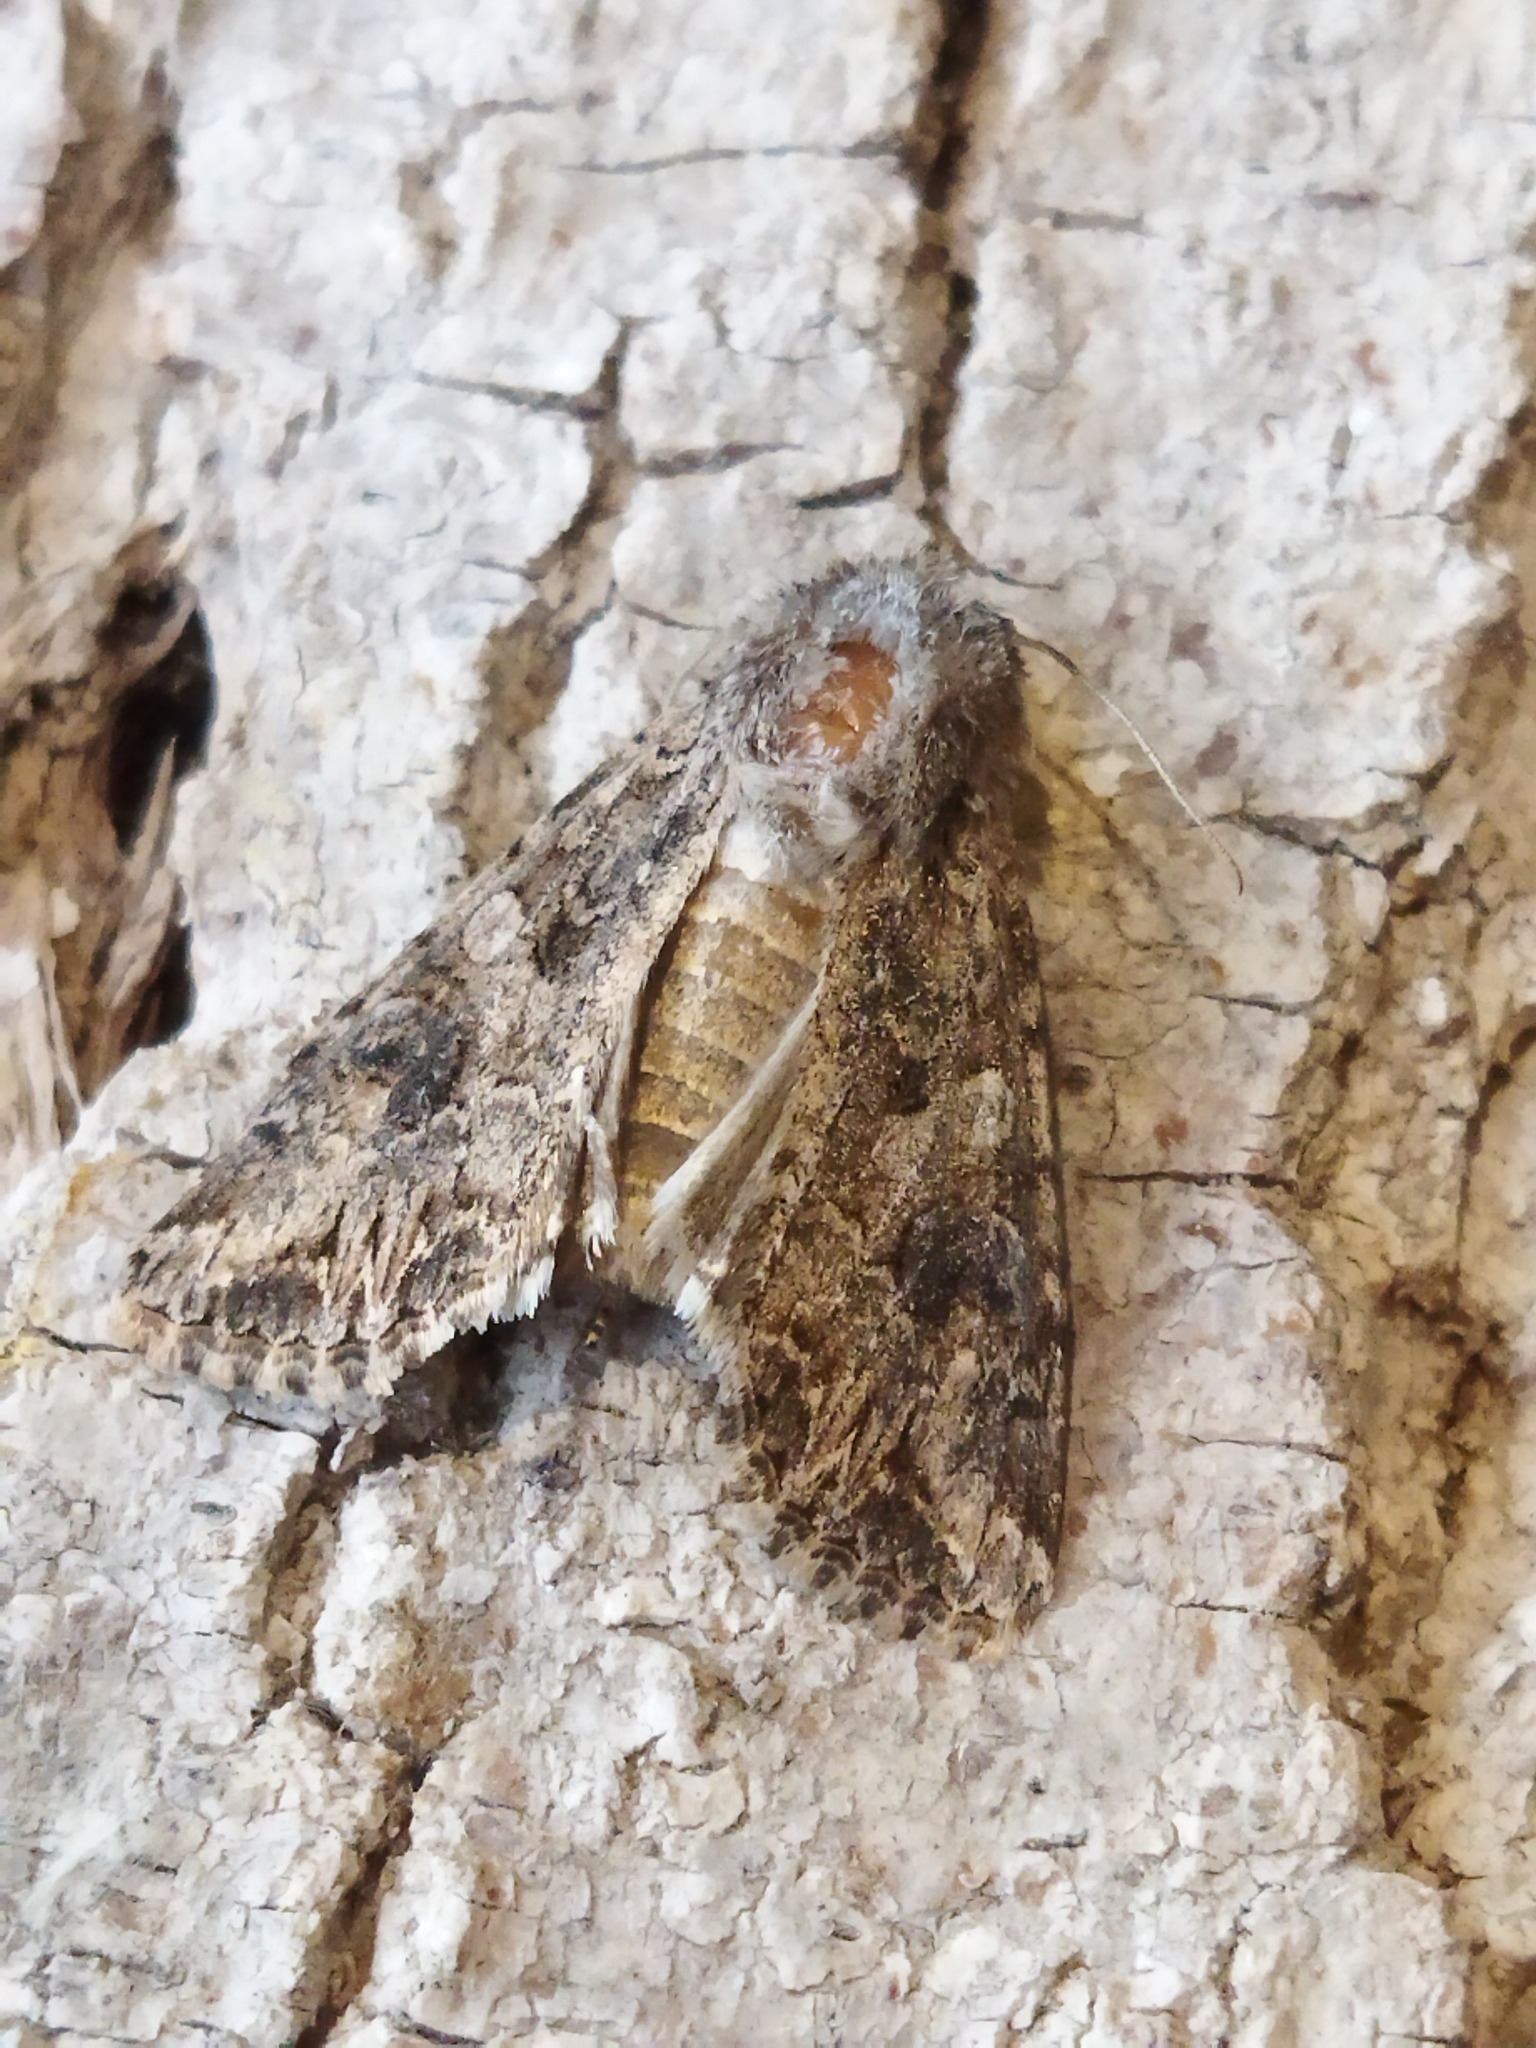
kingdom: Animalia
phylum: Arthropoda
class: Insecta
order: Lepidoptera
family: Noctuidae
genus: Anarta
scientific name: Anarta trifolii
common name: Clover cutworm moth
